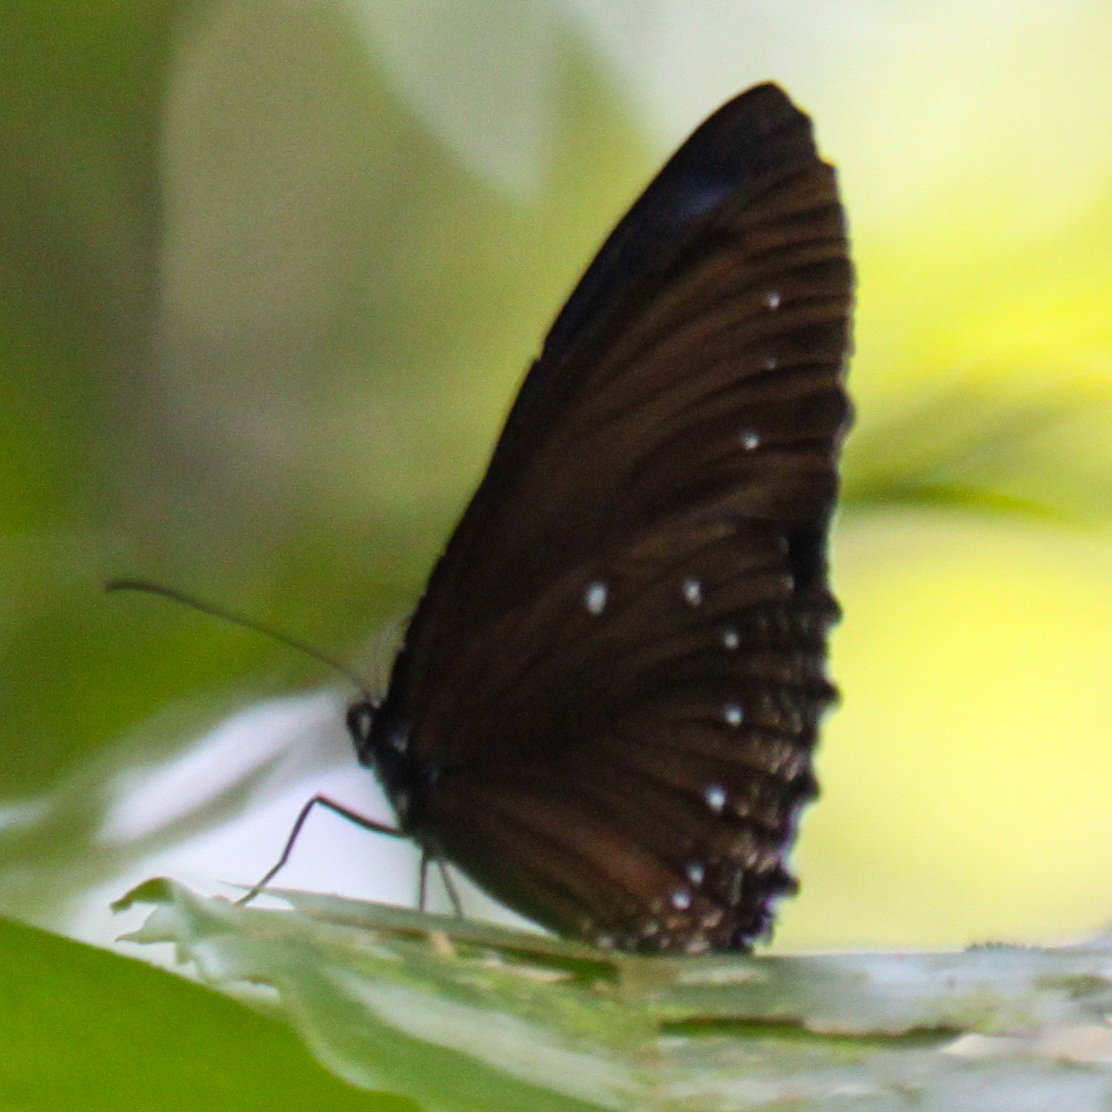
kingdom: Animalia
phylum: Arthropoda
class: Insecta
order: Lepidoptera
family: Nymphalidae
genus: Elymnias
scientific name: Elymnias patna
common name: Blue-striped palmfly
